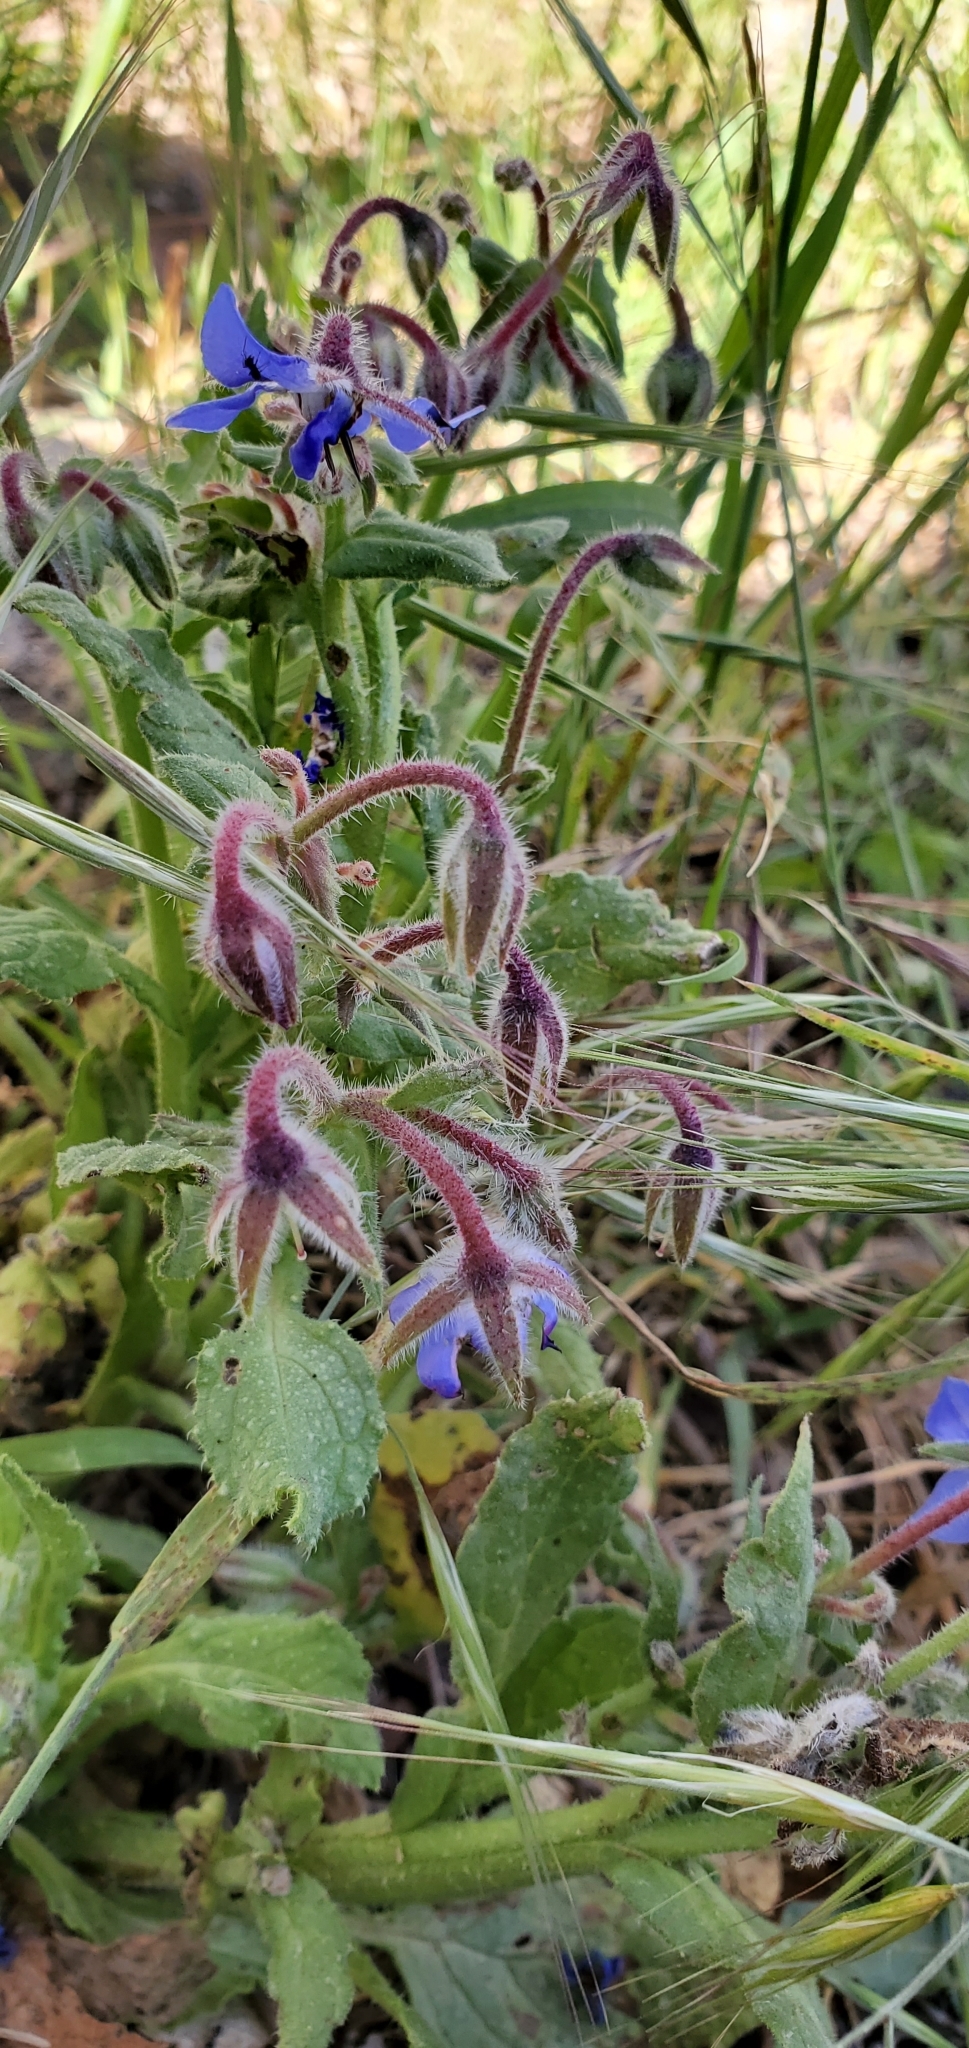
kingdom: Plantae
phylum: Tracheophyta
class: Magnoliopsida
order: Boraginales
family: Boraginaceae
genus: Borago
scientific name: Borago officinalis
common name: Borage
